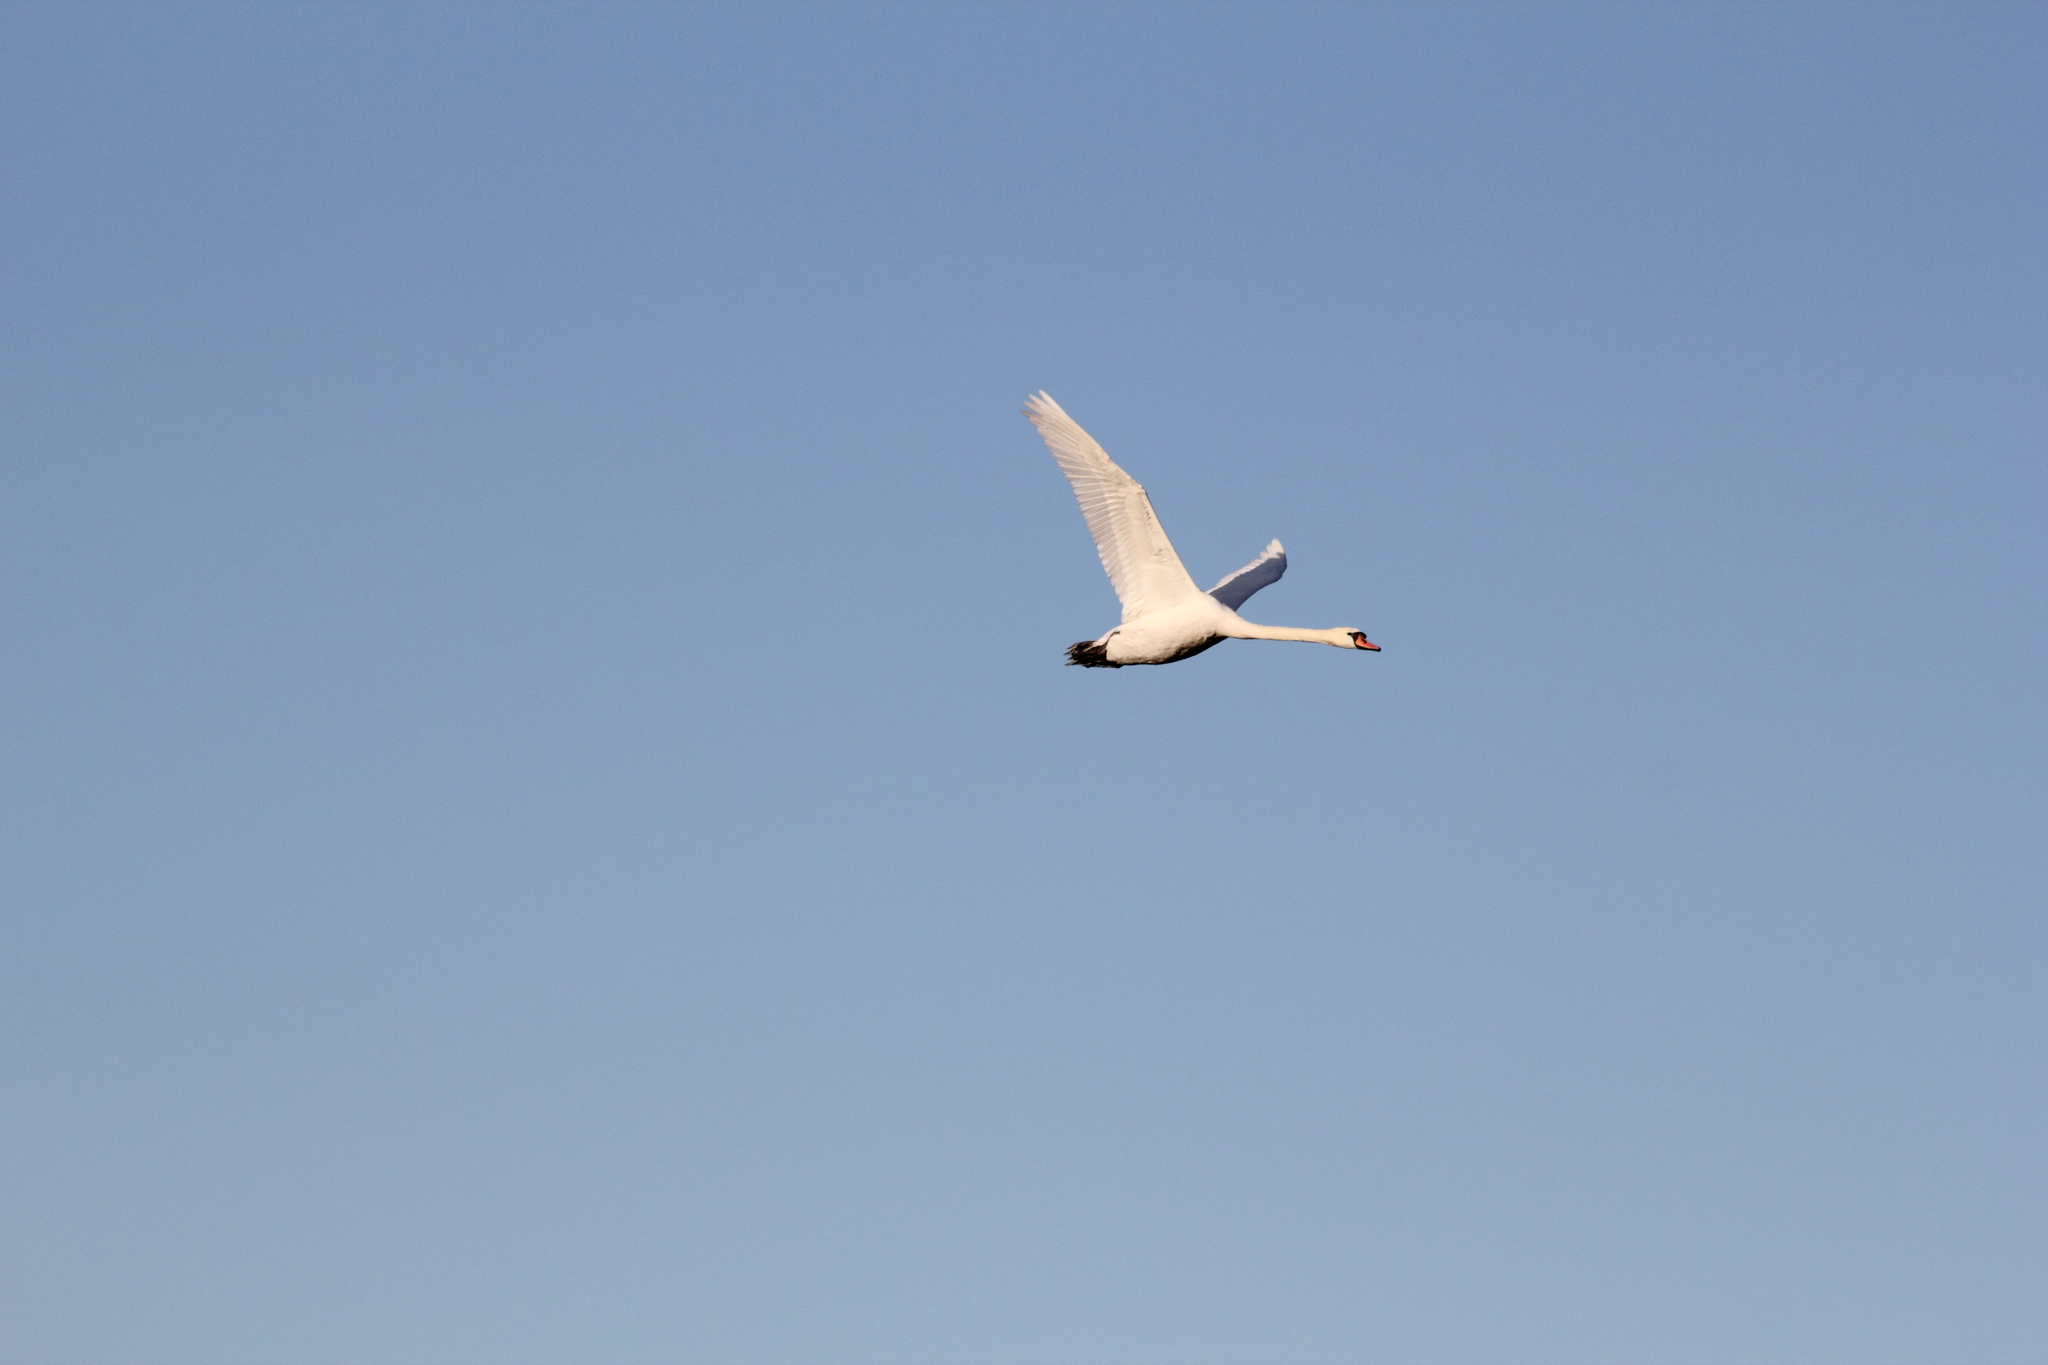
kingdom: Animalia
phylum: Chordata
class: Aves
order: Anseriformes
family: Anatidae
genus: Cygnus
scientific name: Cygnus olor
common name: Mute swan
